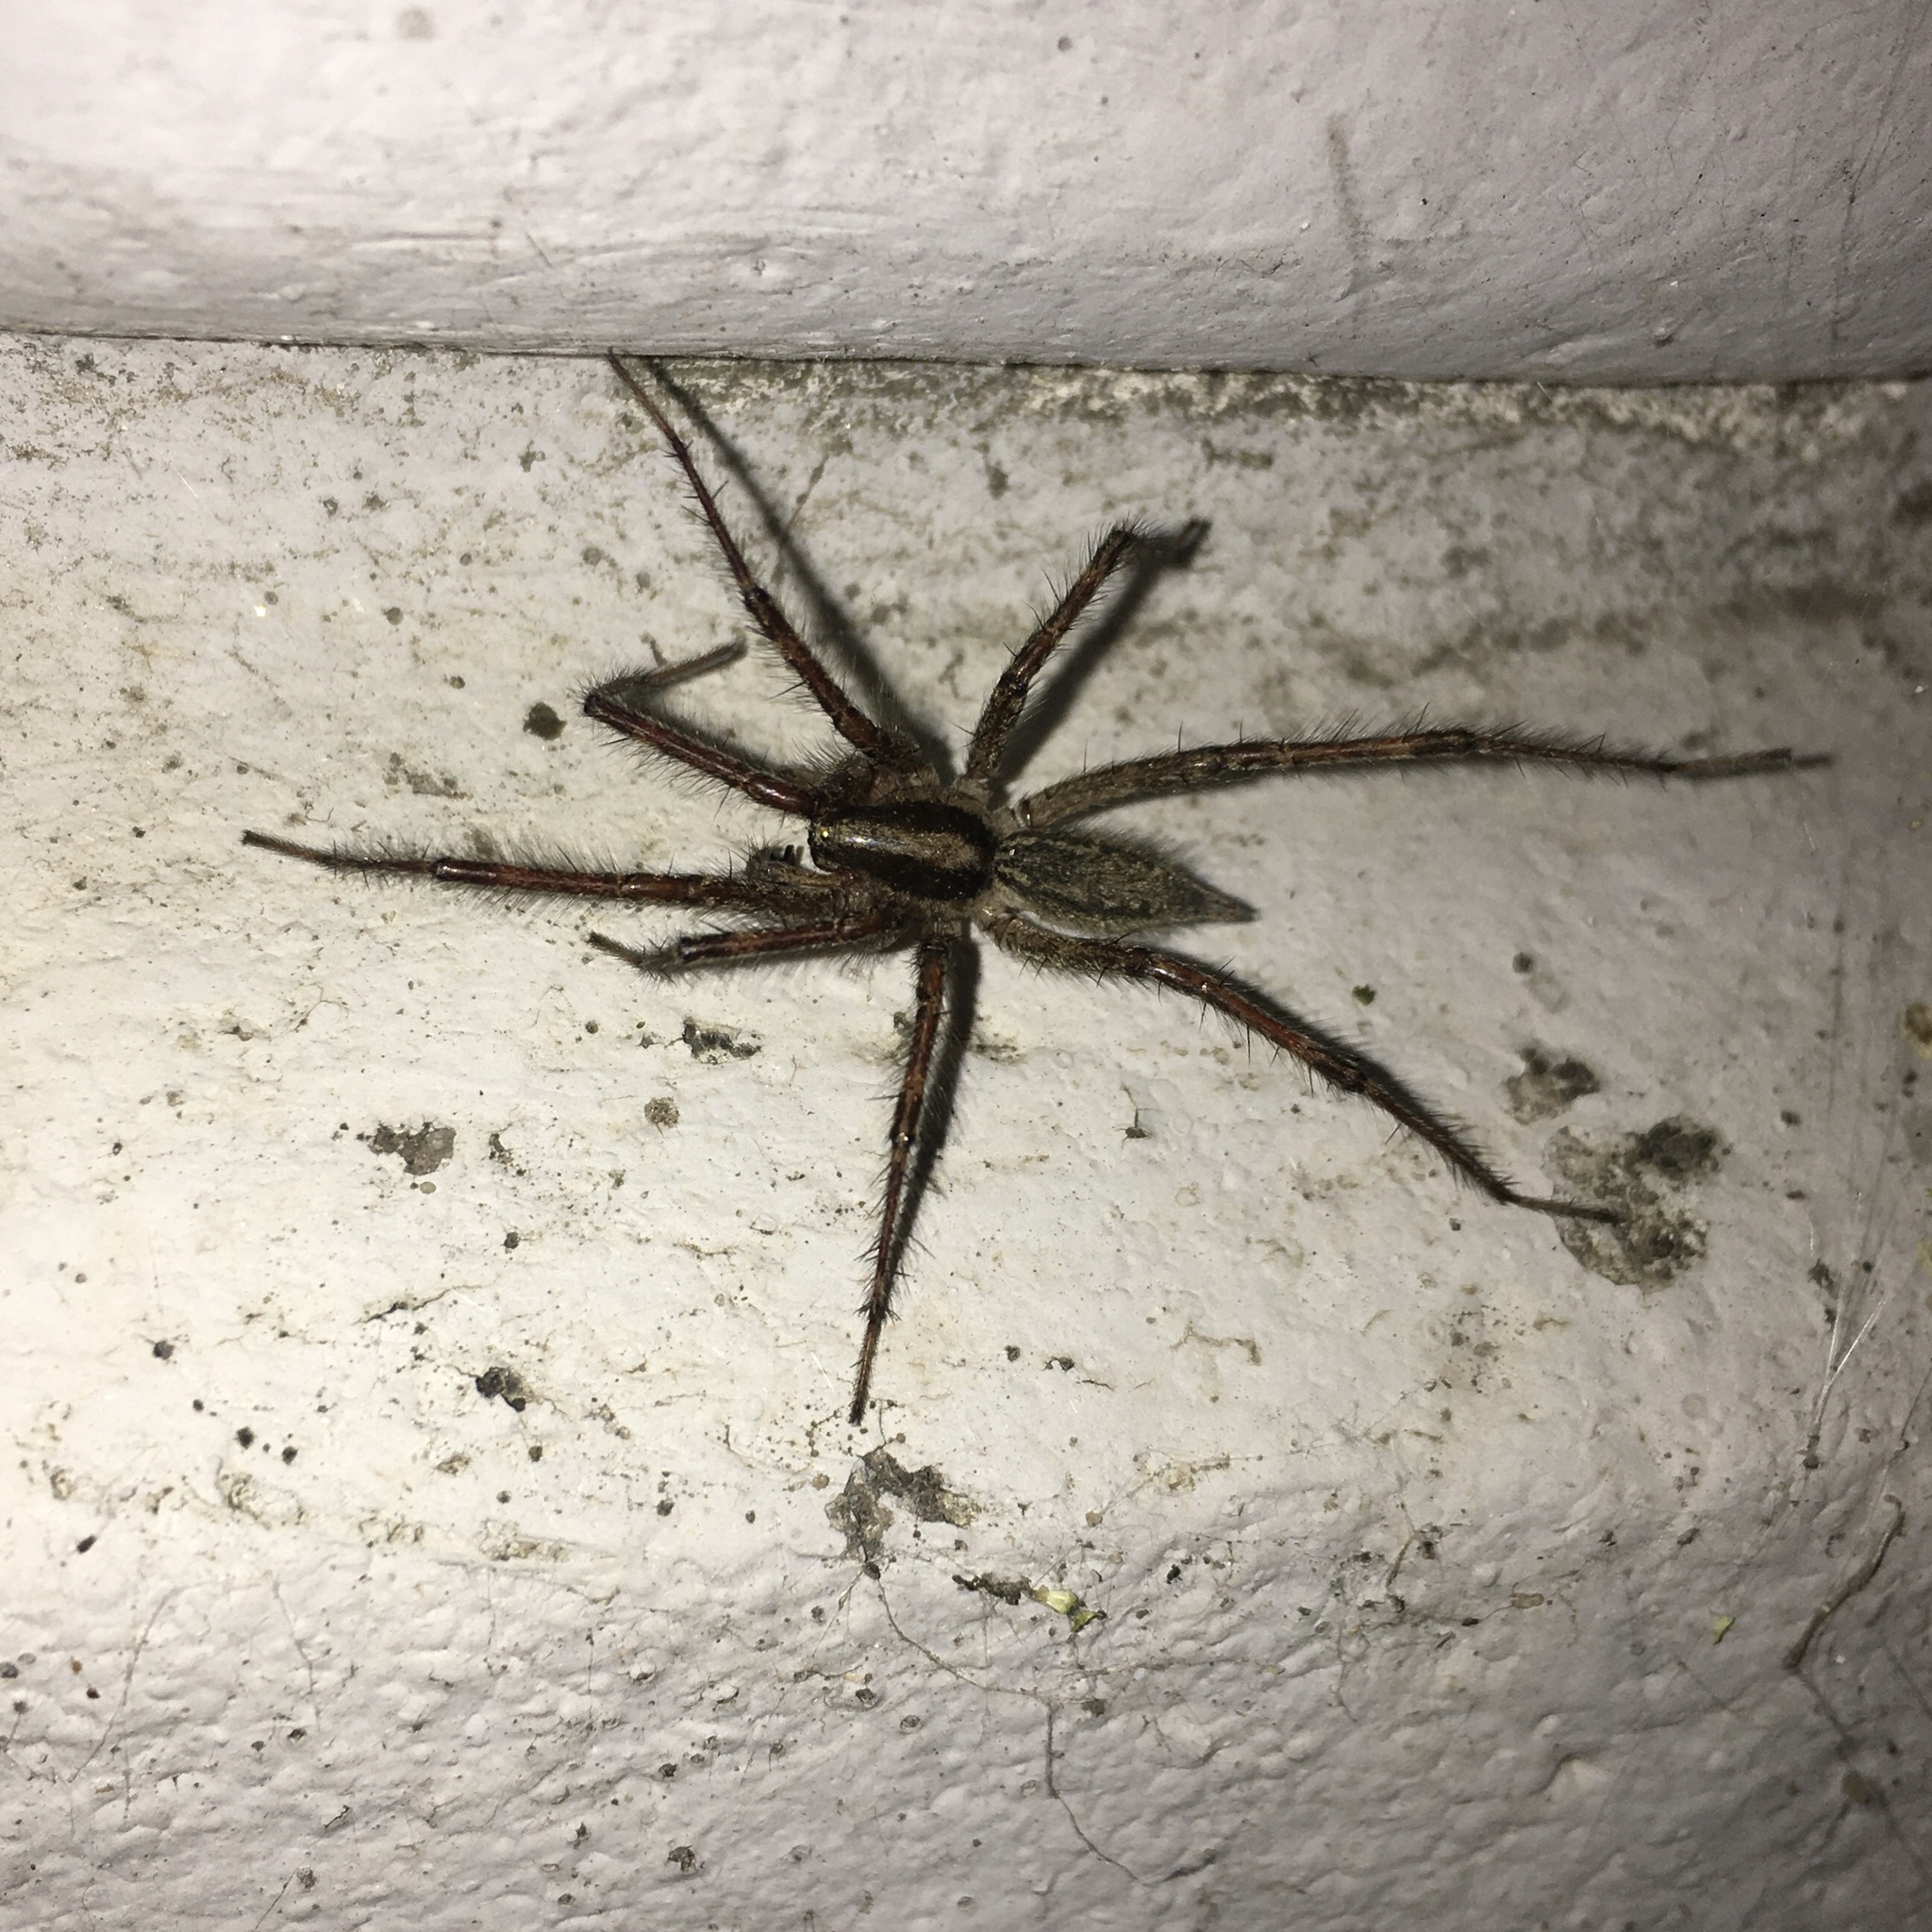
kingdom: Animalia
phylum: Arthropoda
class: Arachnida
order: Araneae
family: Agelenidae
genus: Agelenopsis
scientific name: Agelenopsis potteri
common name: Potter's grass spider
